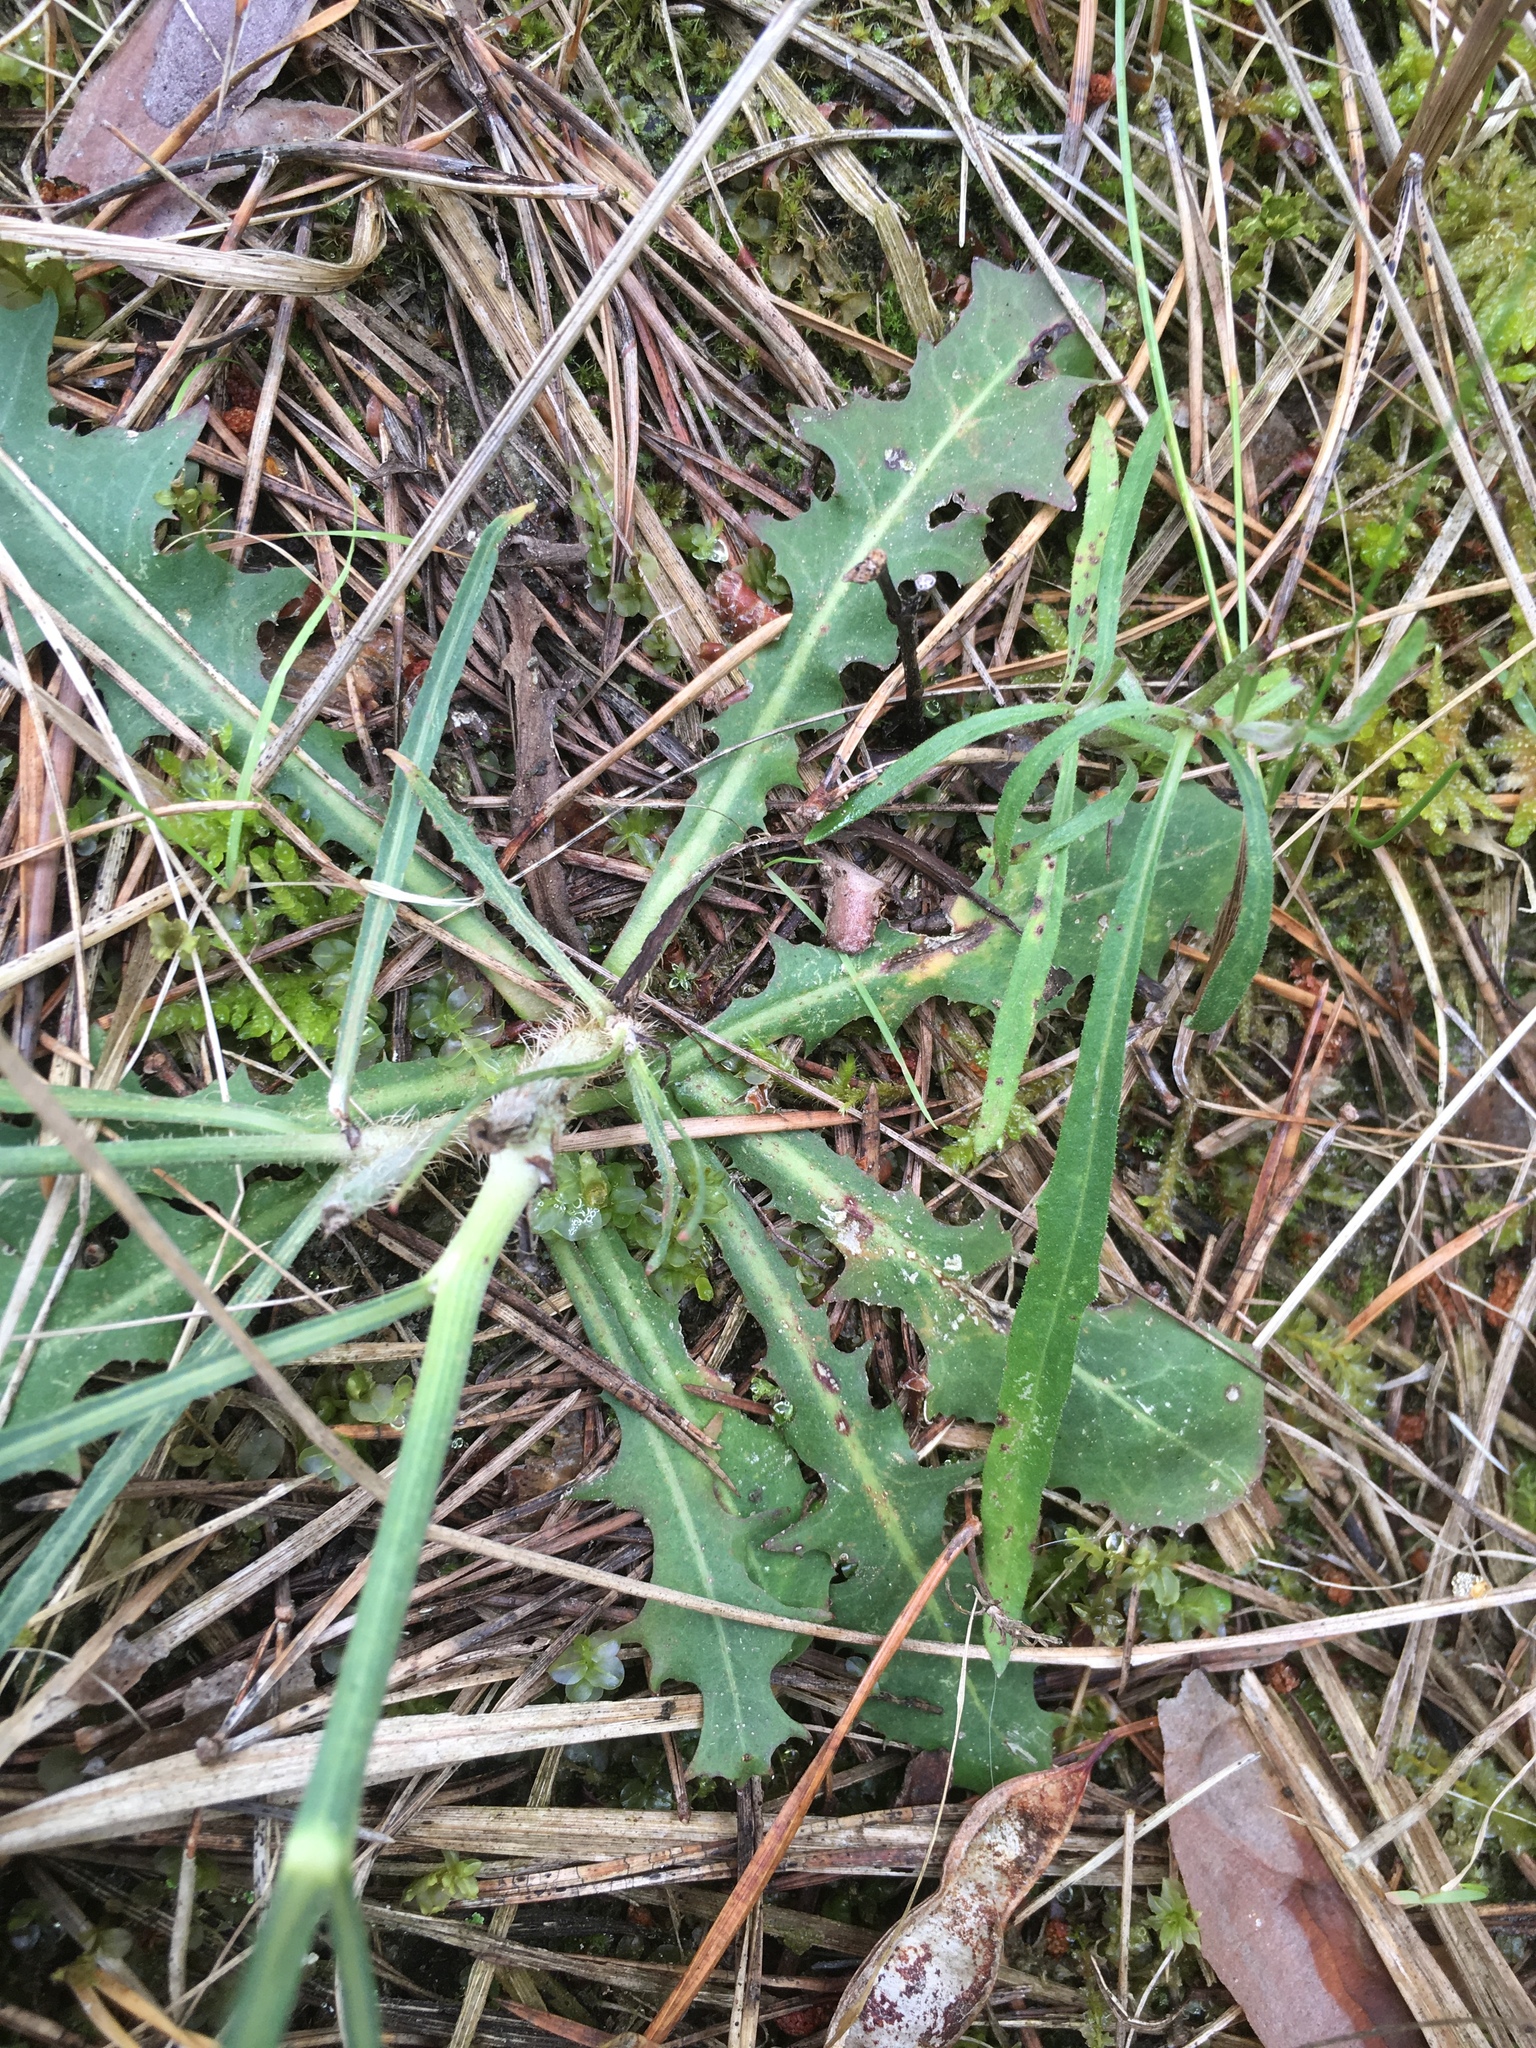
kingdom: Plantae
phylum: Tracheophyta
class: Magnoliopsida
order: Asterales
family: Asteraceae
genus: Chondrilla
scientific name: Chondrilla juncea
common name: Skeleton weed
